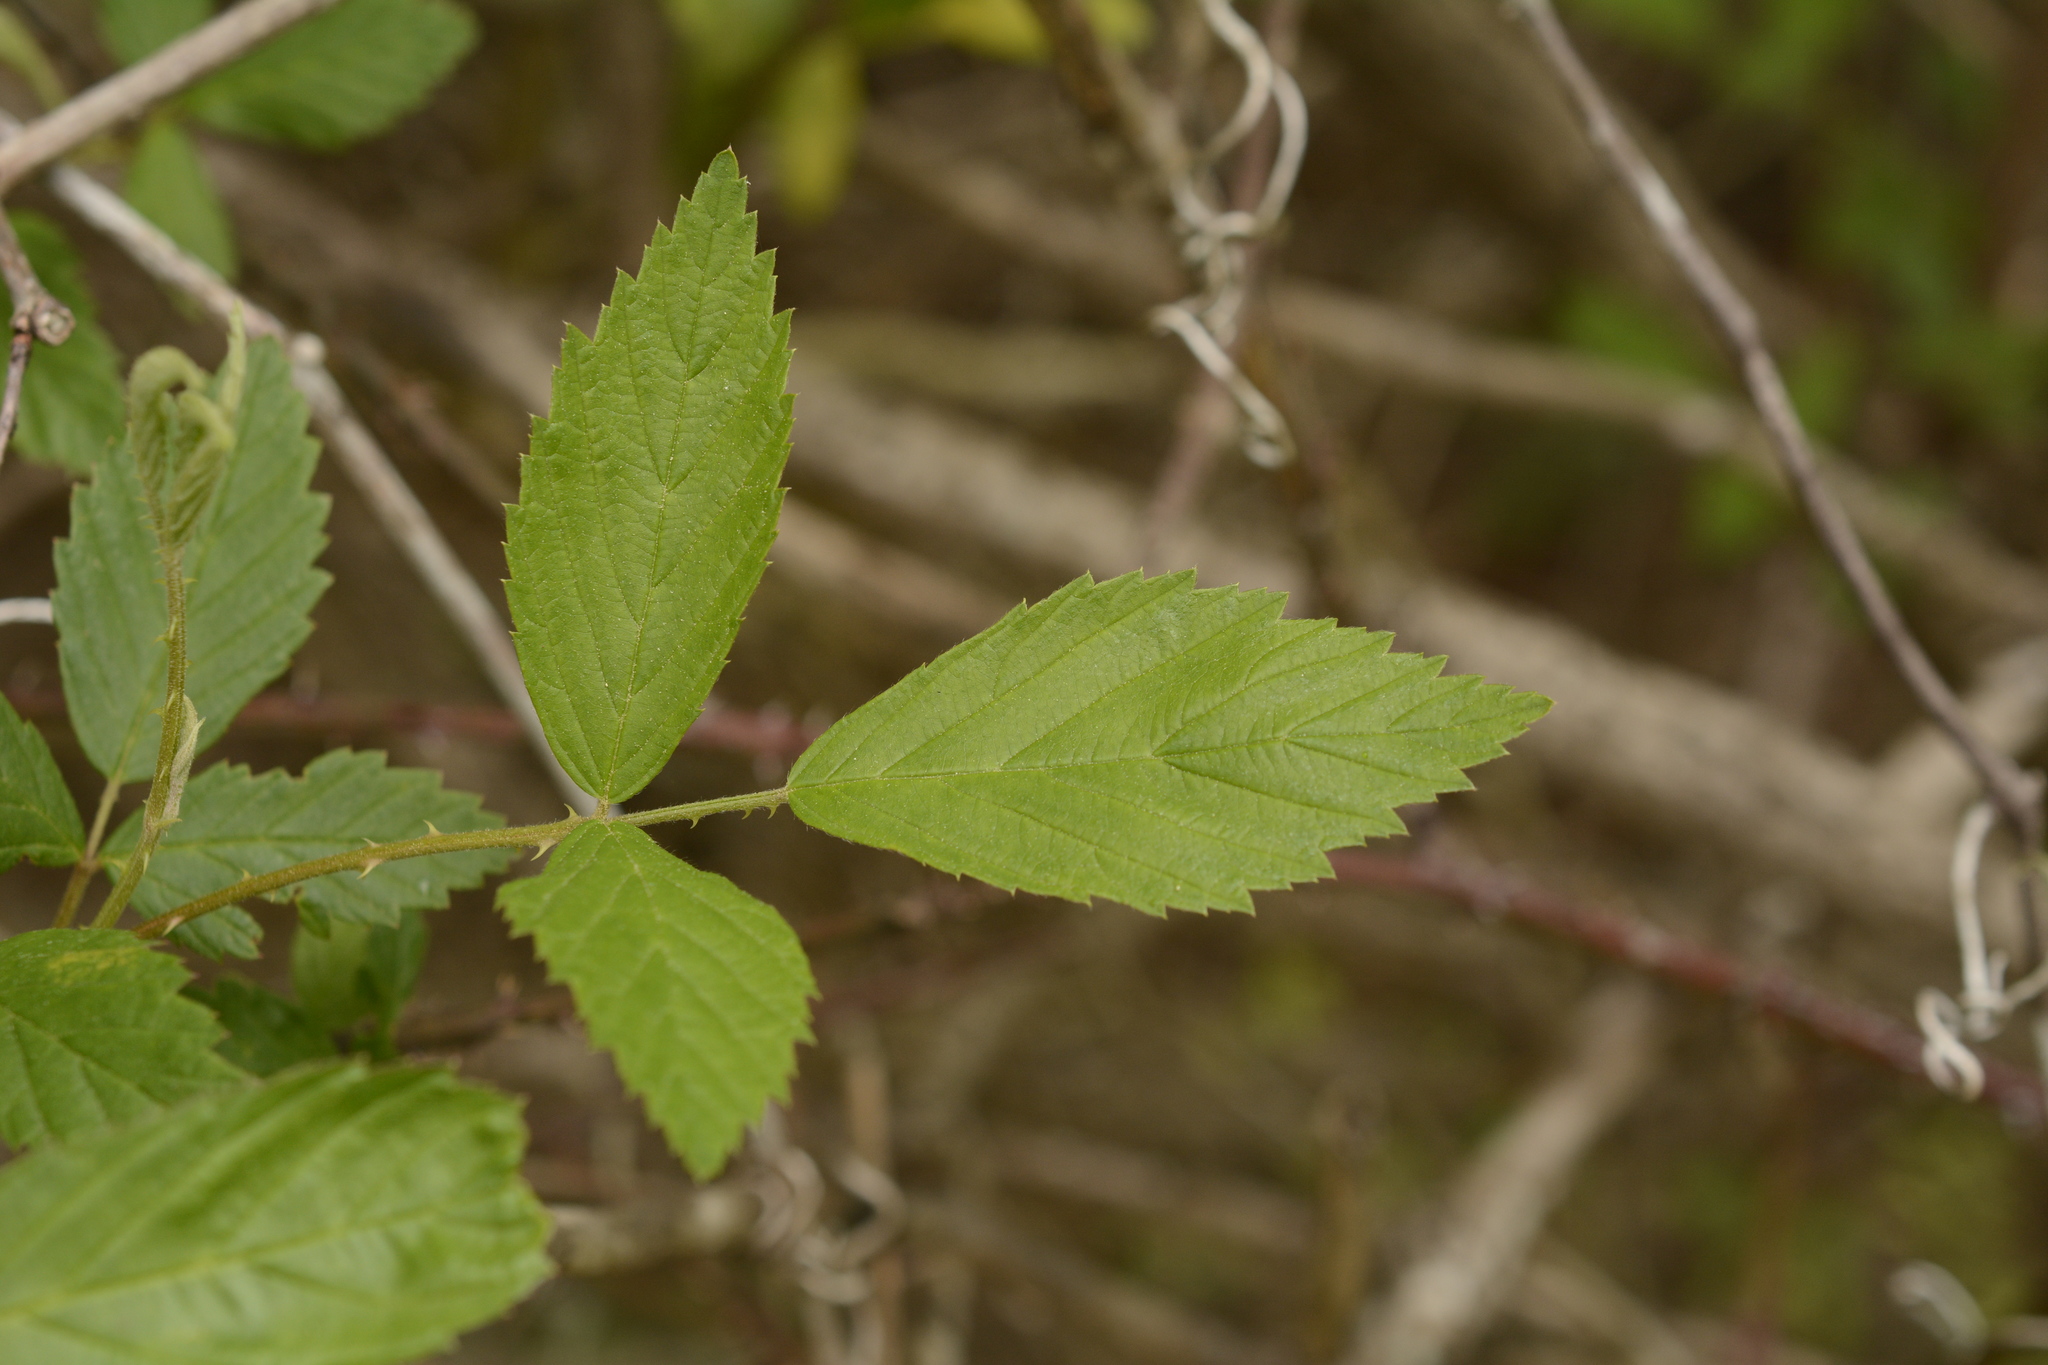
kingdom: Plantae
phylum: Tracheophyta
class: Magnoliopsida
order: Rosales
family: Rosaceae
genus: Rubus
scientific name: Rubus pensilvanicus
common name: Pennsylvania blackberry
